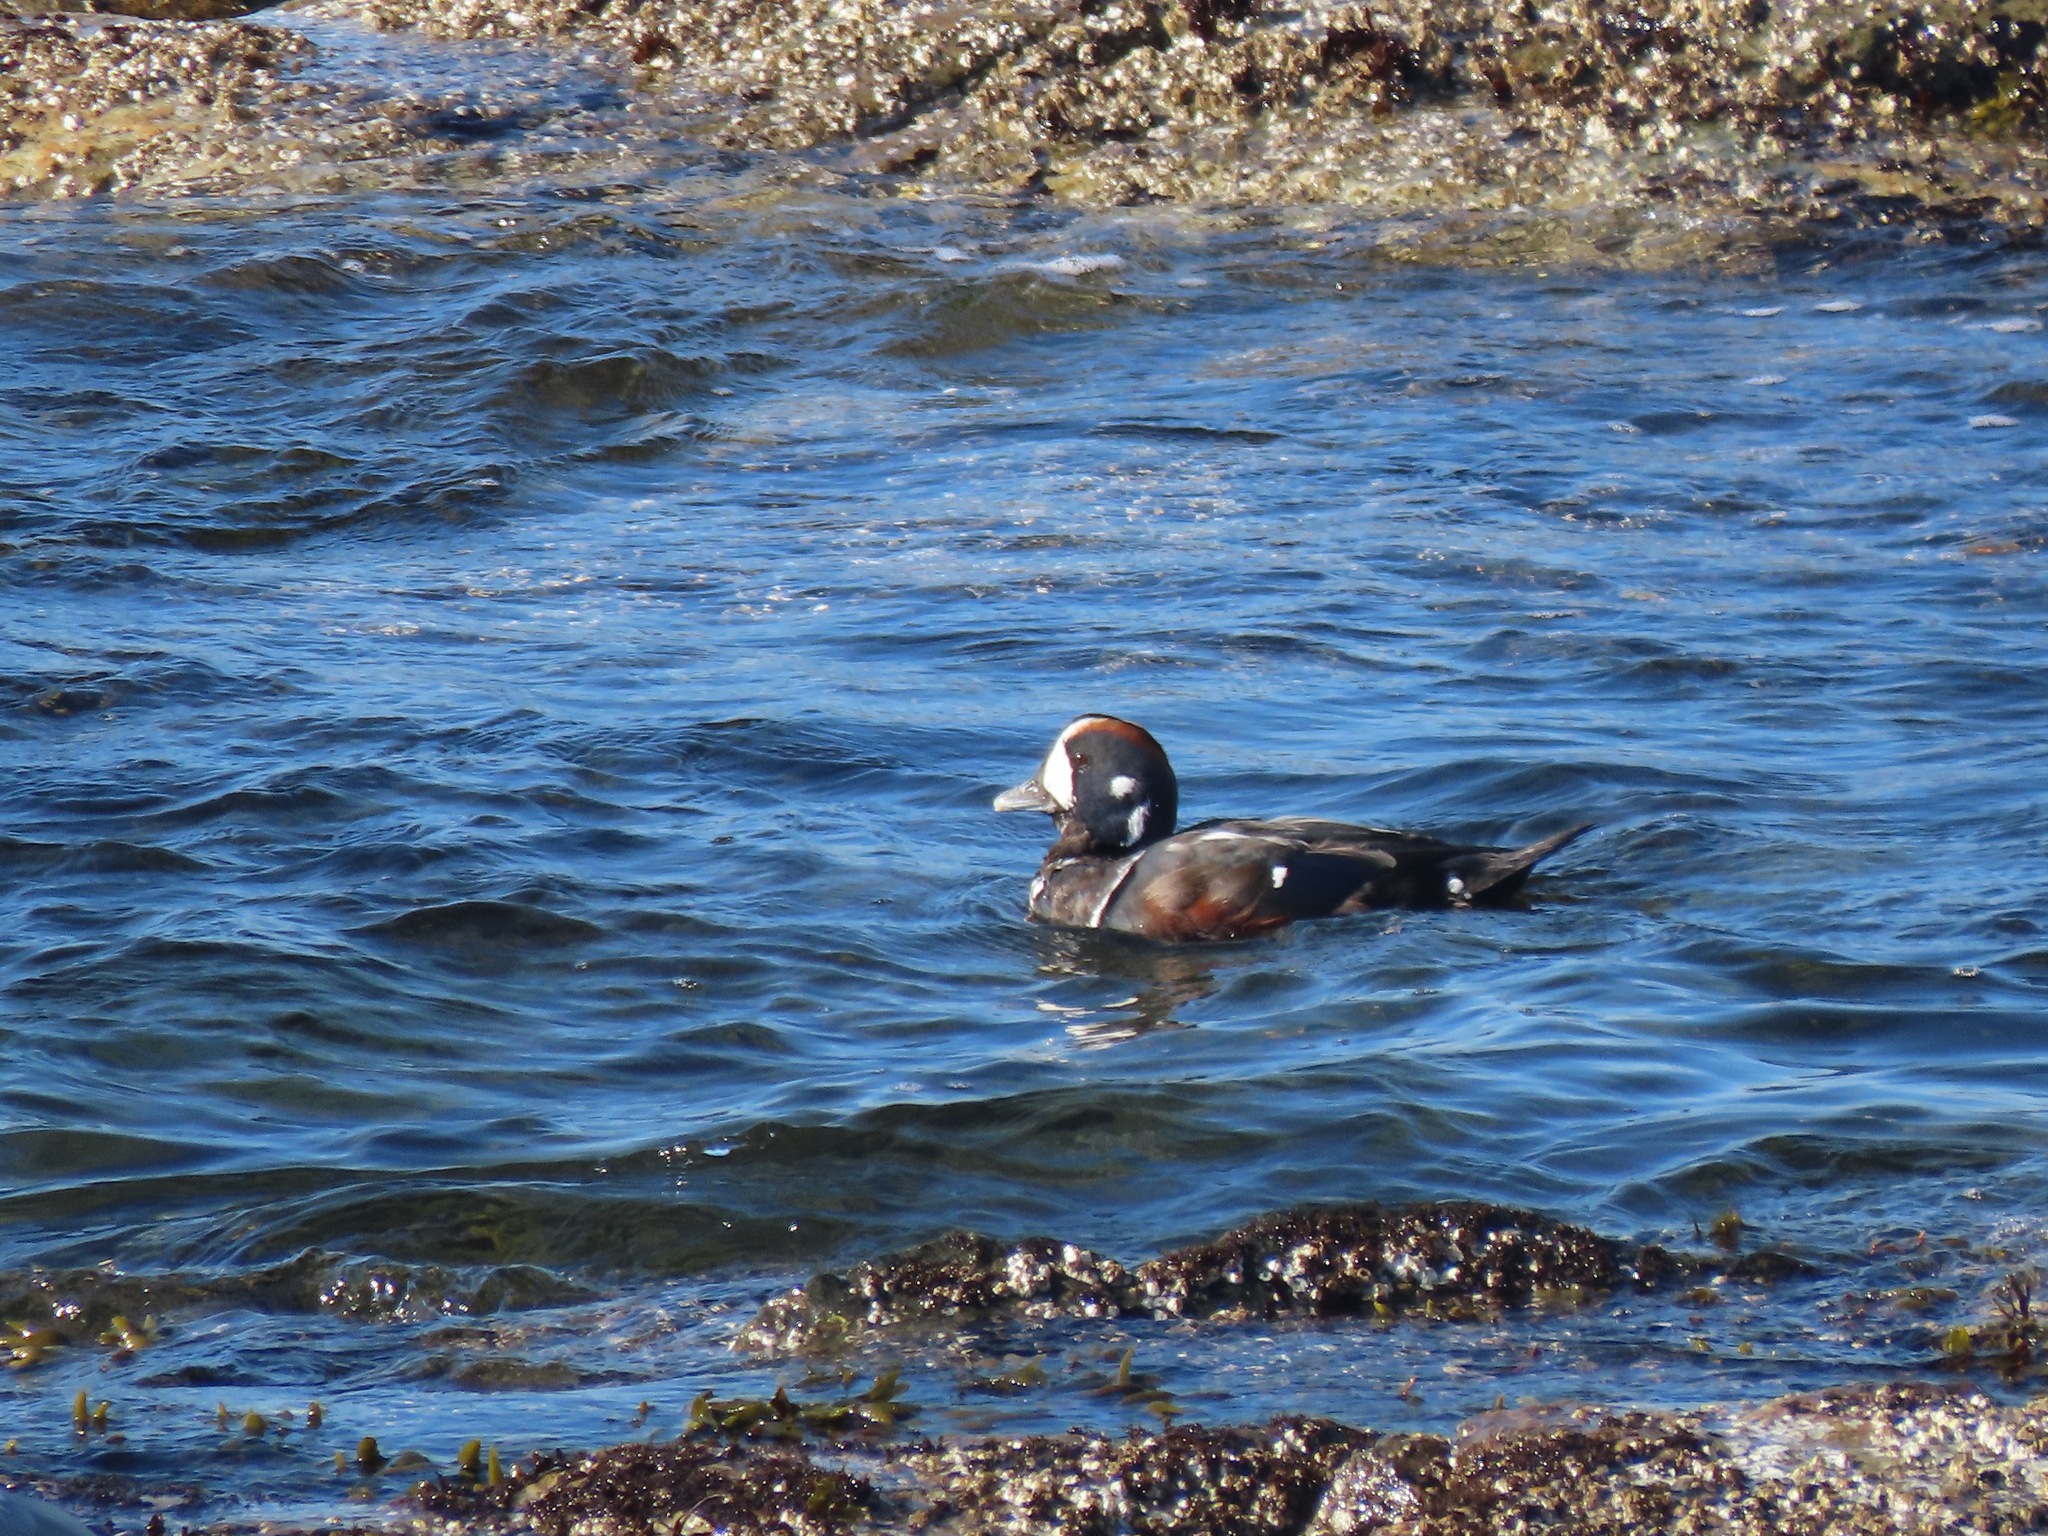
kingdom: Animalia
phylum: Chordata
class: Aves
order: Anseriformes
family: Anatidae
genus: Histrionicus
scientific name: Histrionicus histrionicus
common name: Harlequin duck
